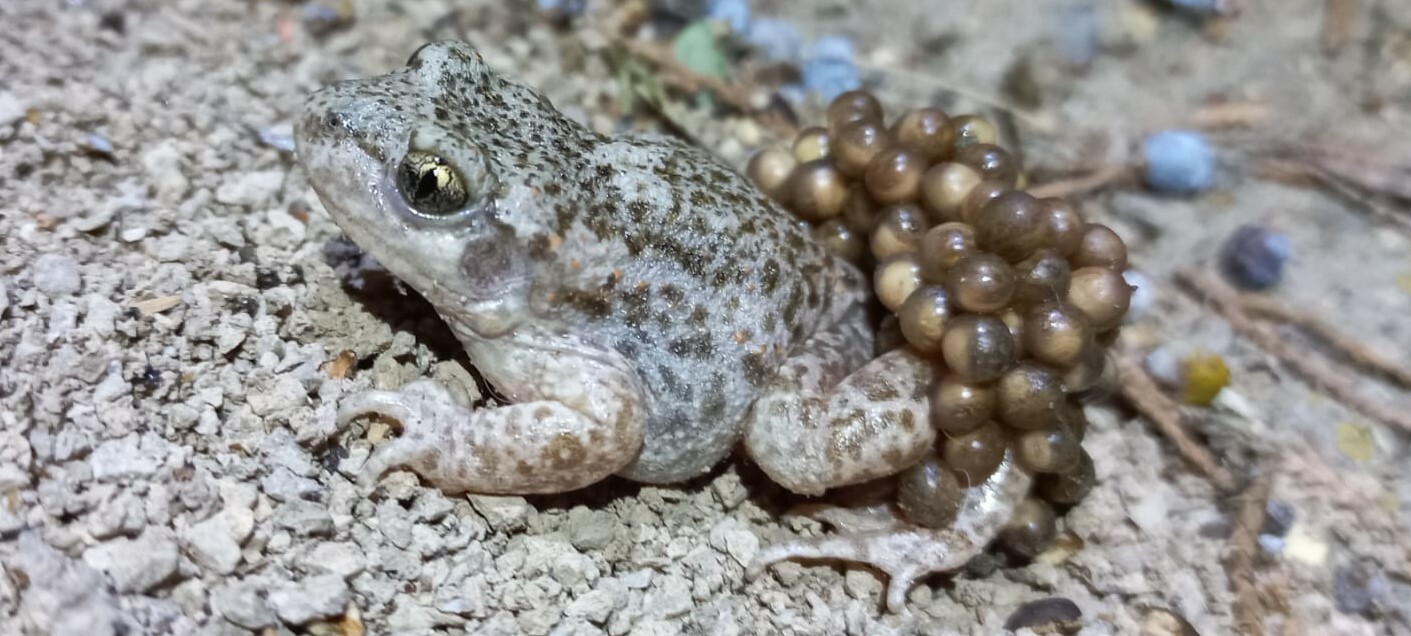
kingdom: Animalia
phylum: Chordata
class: Amphibia
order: Anura
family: Alytidae
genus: Alytes
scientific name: Alytes obstetricans
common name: Midwife toad
